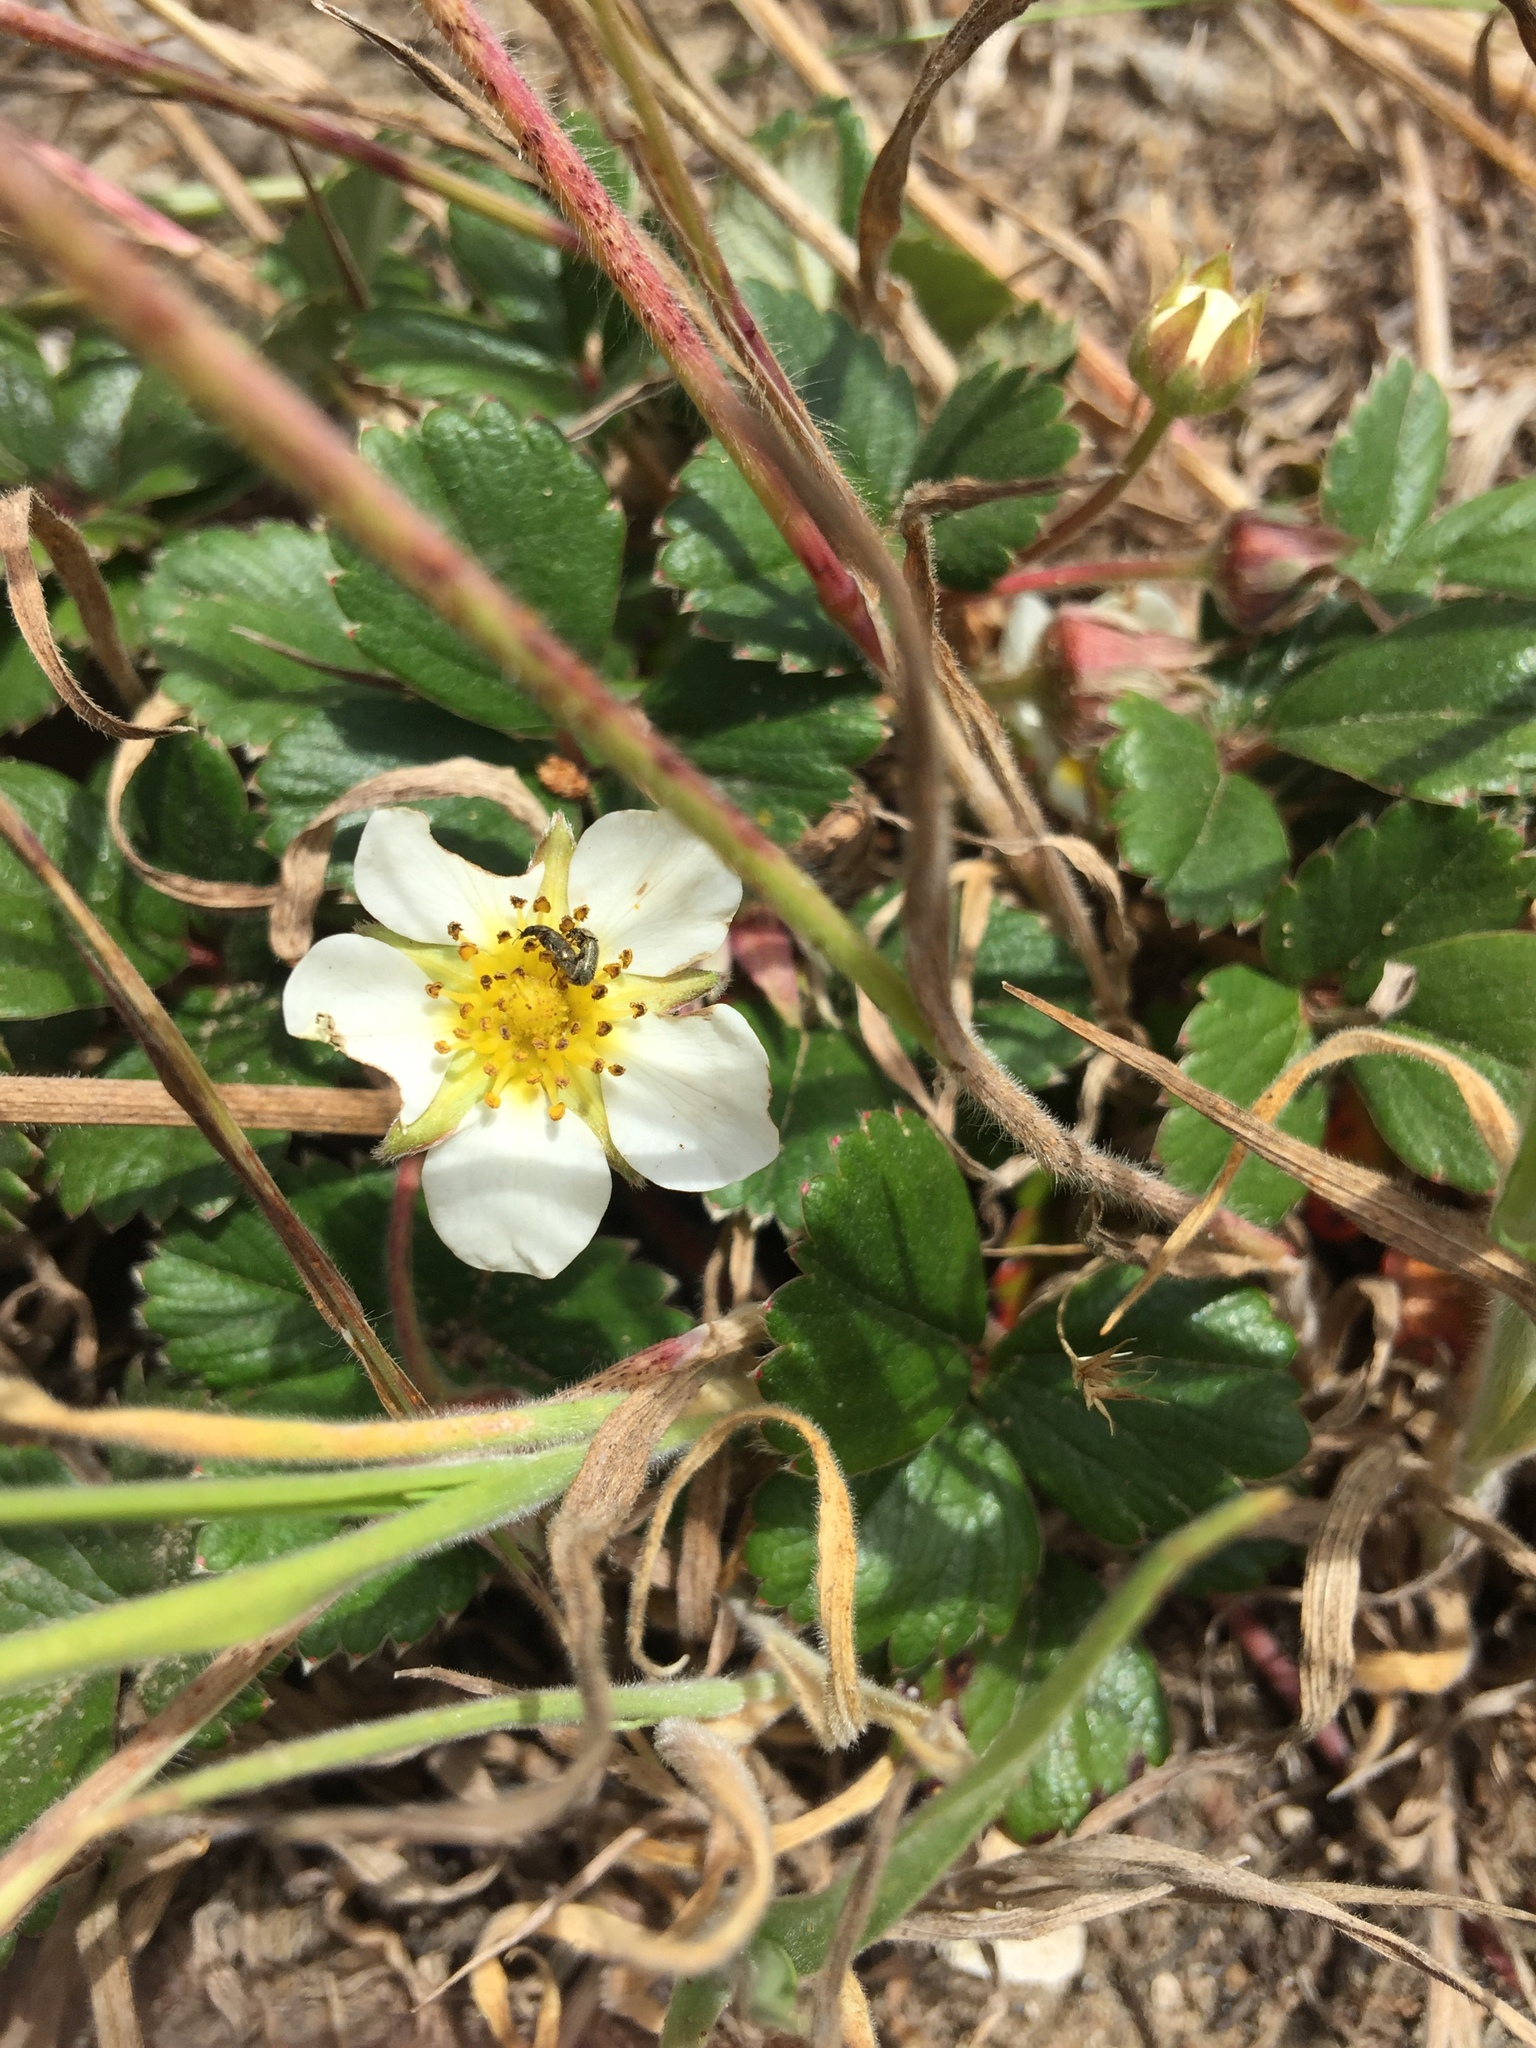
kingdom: Plantae
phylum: Tracheophyta
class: Magnoliopsida
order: Rosales
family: Rosaceae
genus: Fragaria
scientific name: Fragaria chiloensis
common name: Beach strawberry
